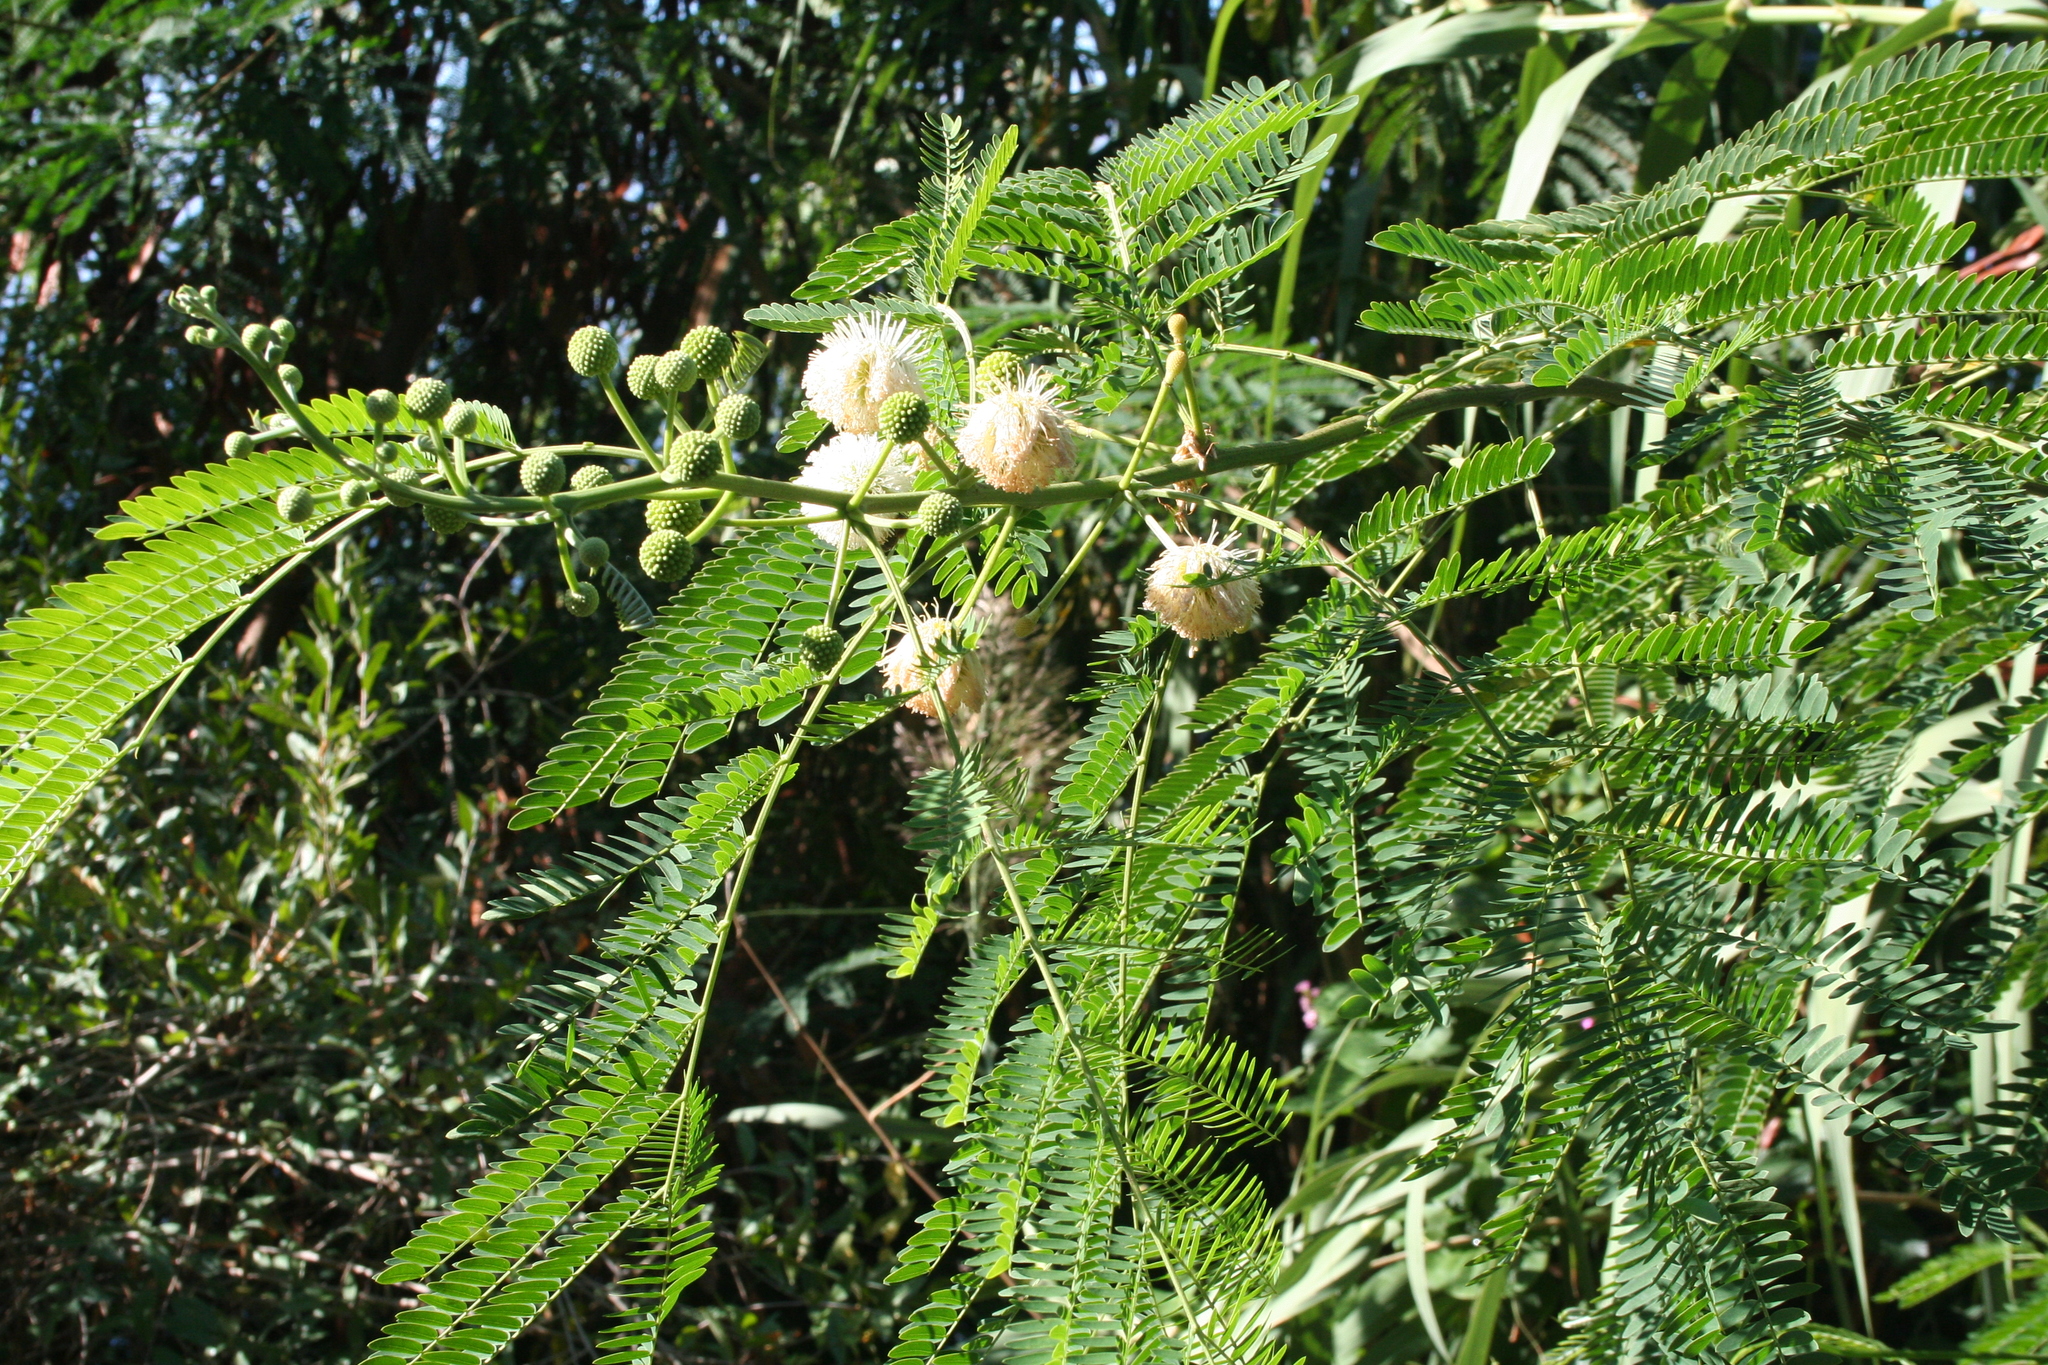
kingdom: Plantae
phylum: Tracheophyta
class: Magnoliopsida
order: Fabales
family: Fabaceae
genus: Leucaena
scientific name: Leucaena leucocephala
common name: White leadtree
